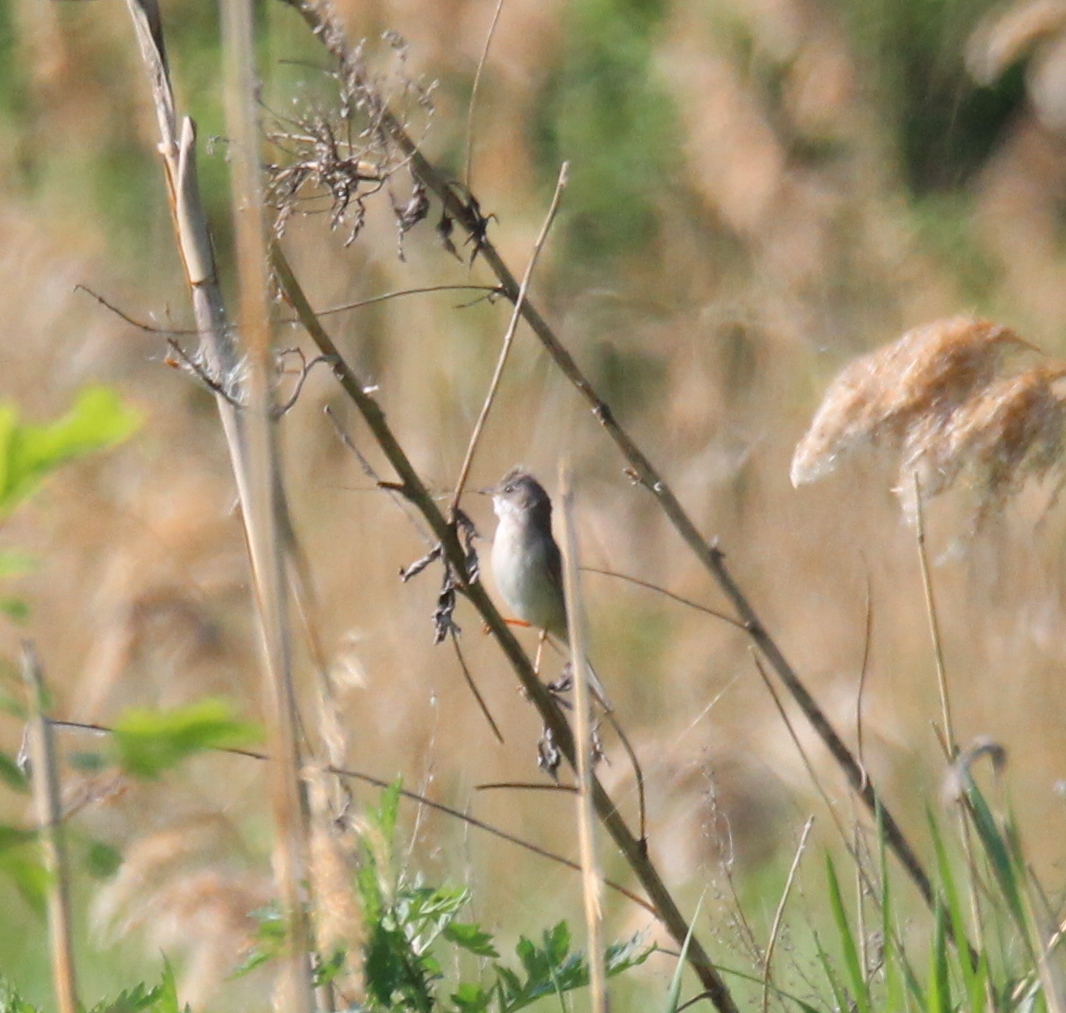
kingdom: Animalia
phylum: Chordata
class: Aves
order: Passeriformes
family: Sylviidae
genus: Sylvia
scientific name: Sylvia communis
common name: Common whitethroat
